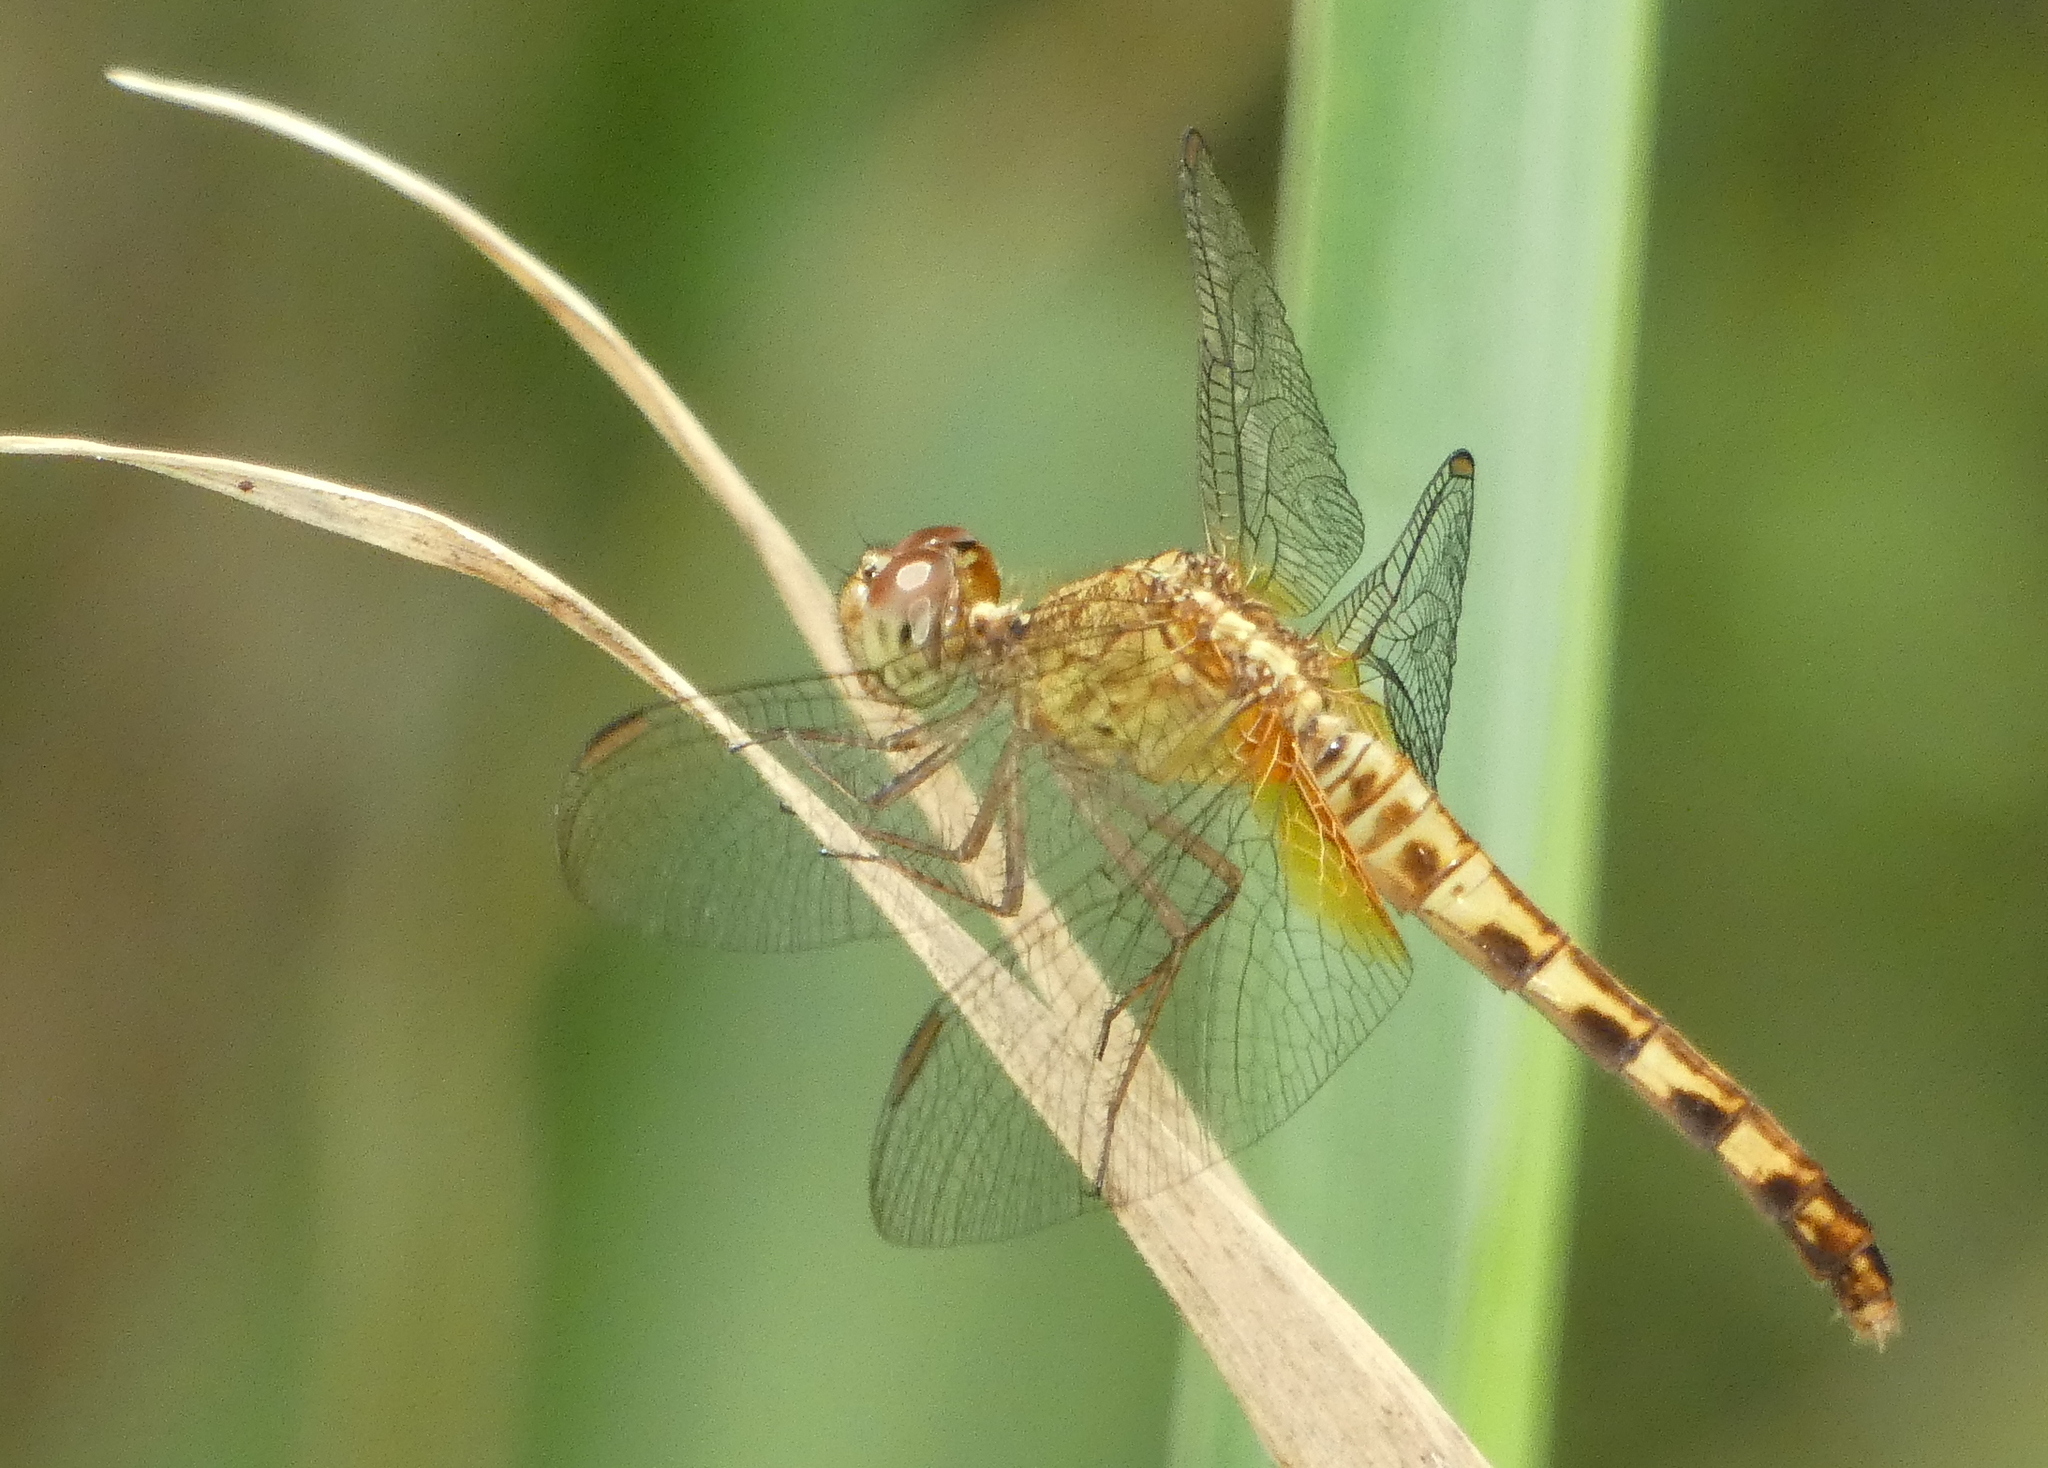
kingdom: Animalia
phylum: Arthropoda
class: Insecta
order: Odonata
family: Libellulidae
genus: Erythrodiplax
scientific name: Erythrodiplax umbrata
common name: Band-winged dragonlet
